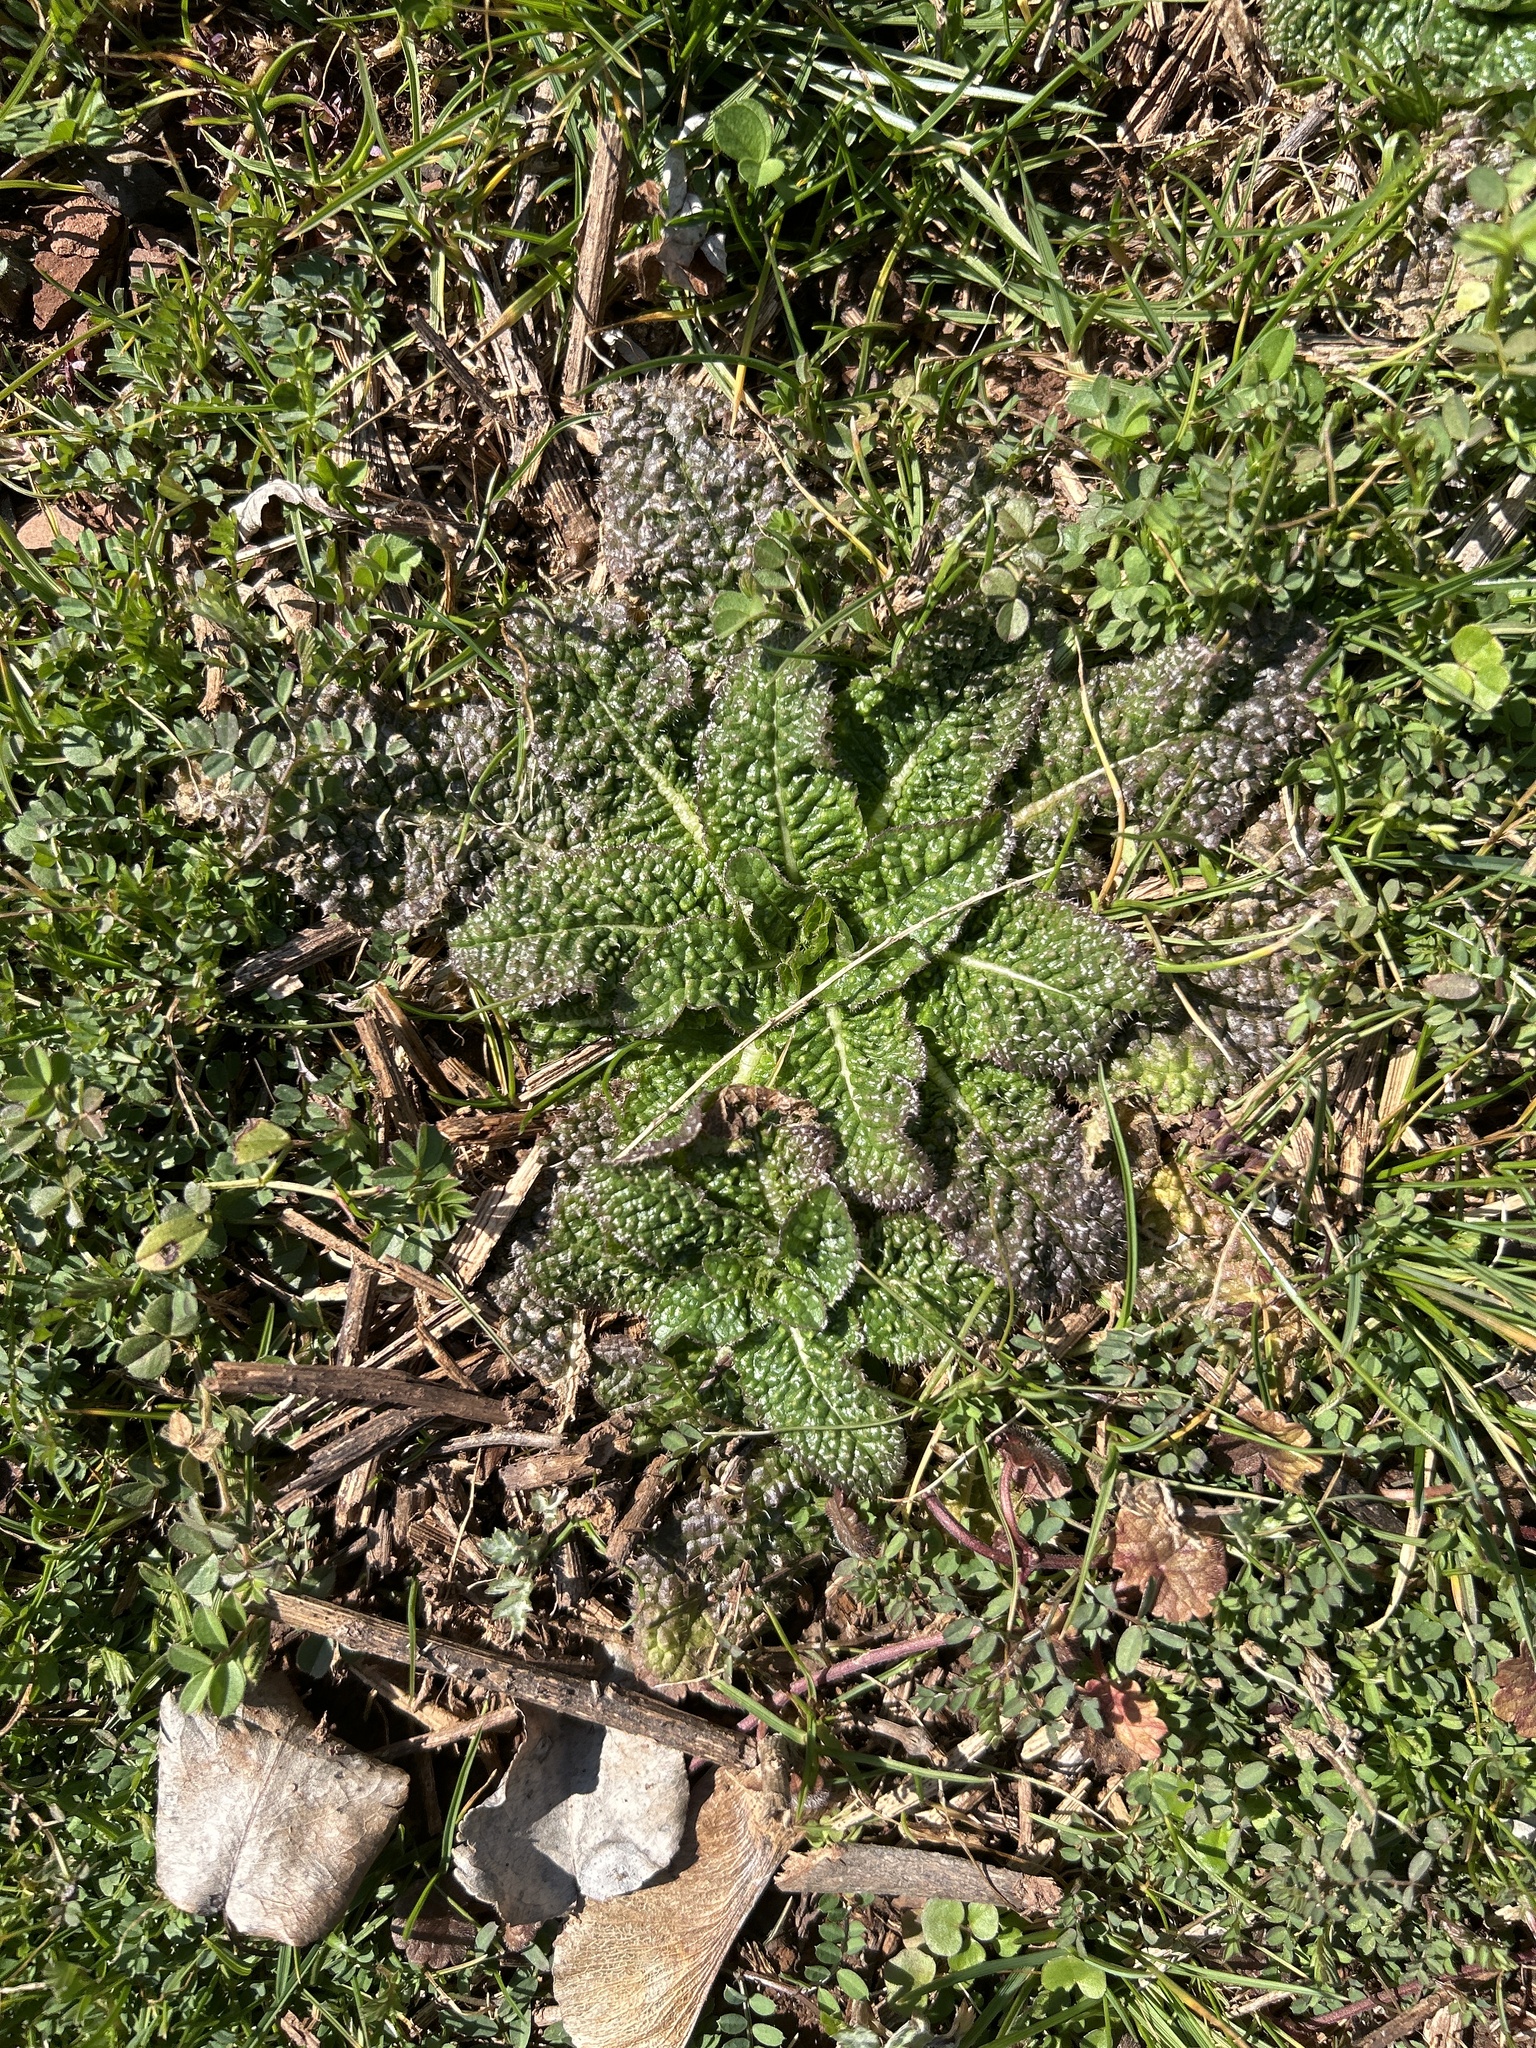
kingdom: Plantae
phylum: Tracheophyta
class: Magnoliopsida
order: Dipsacales
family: Caprifoliaceae
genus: Dipsacus
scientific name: Dipsacus fullonum
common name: Teasel
